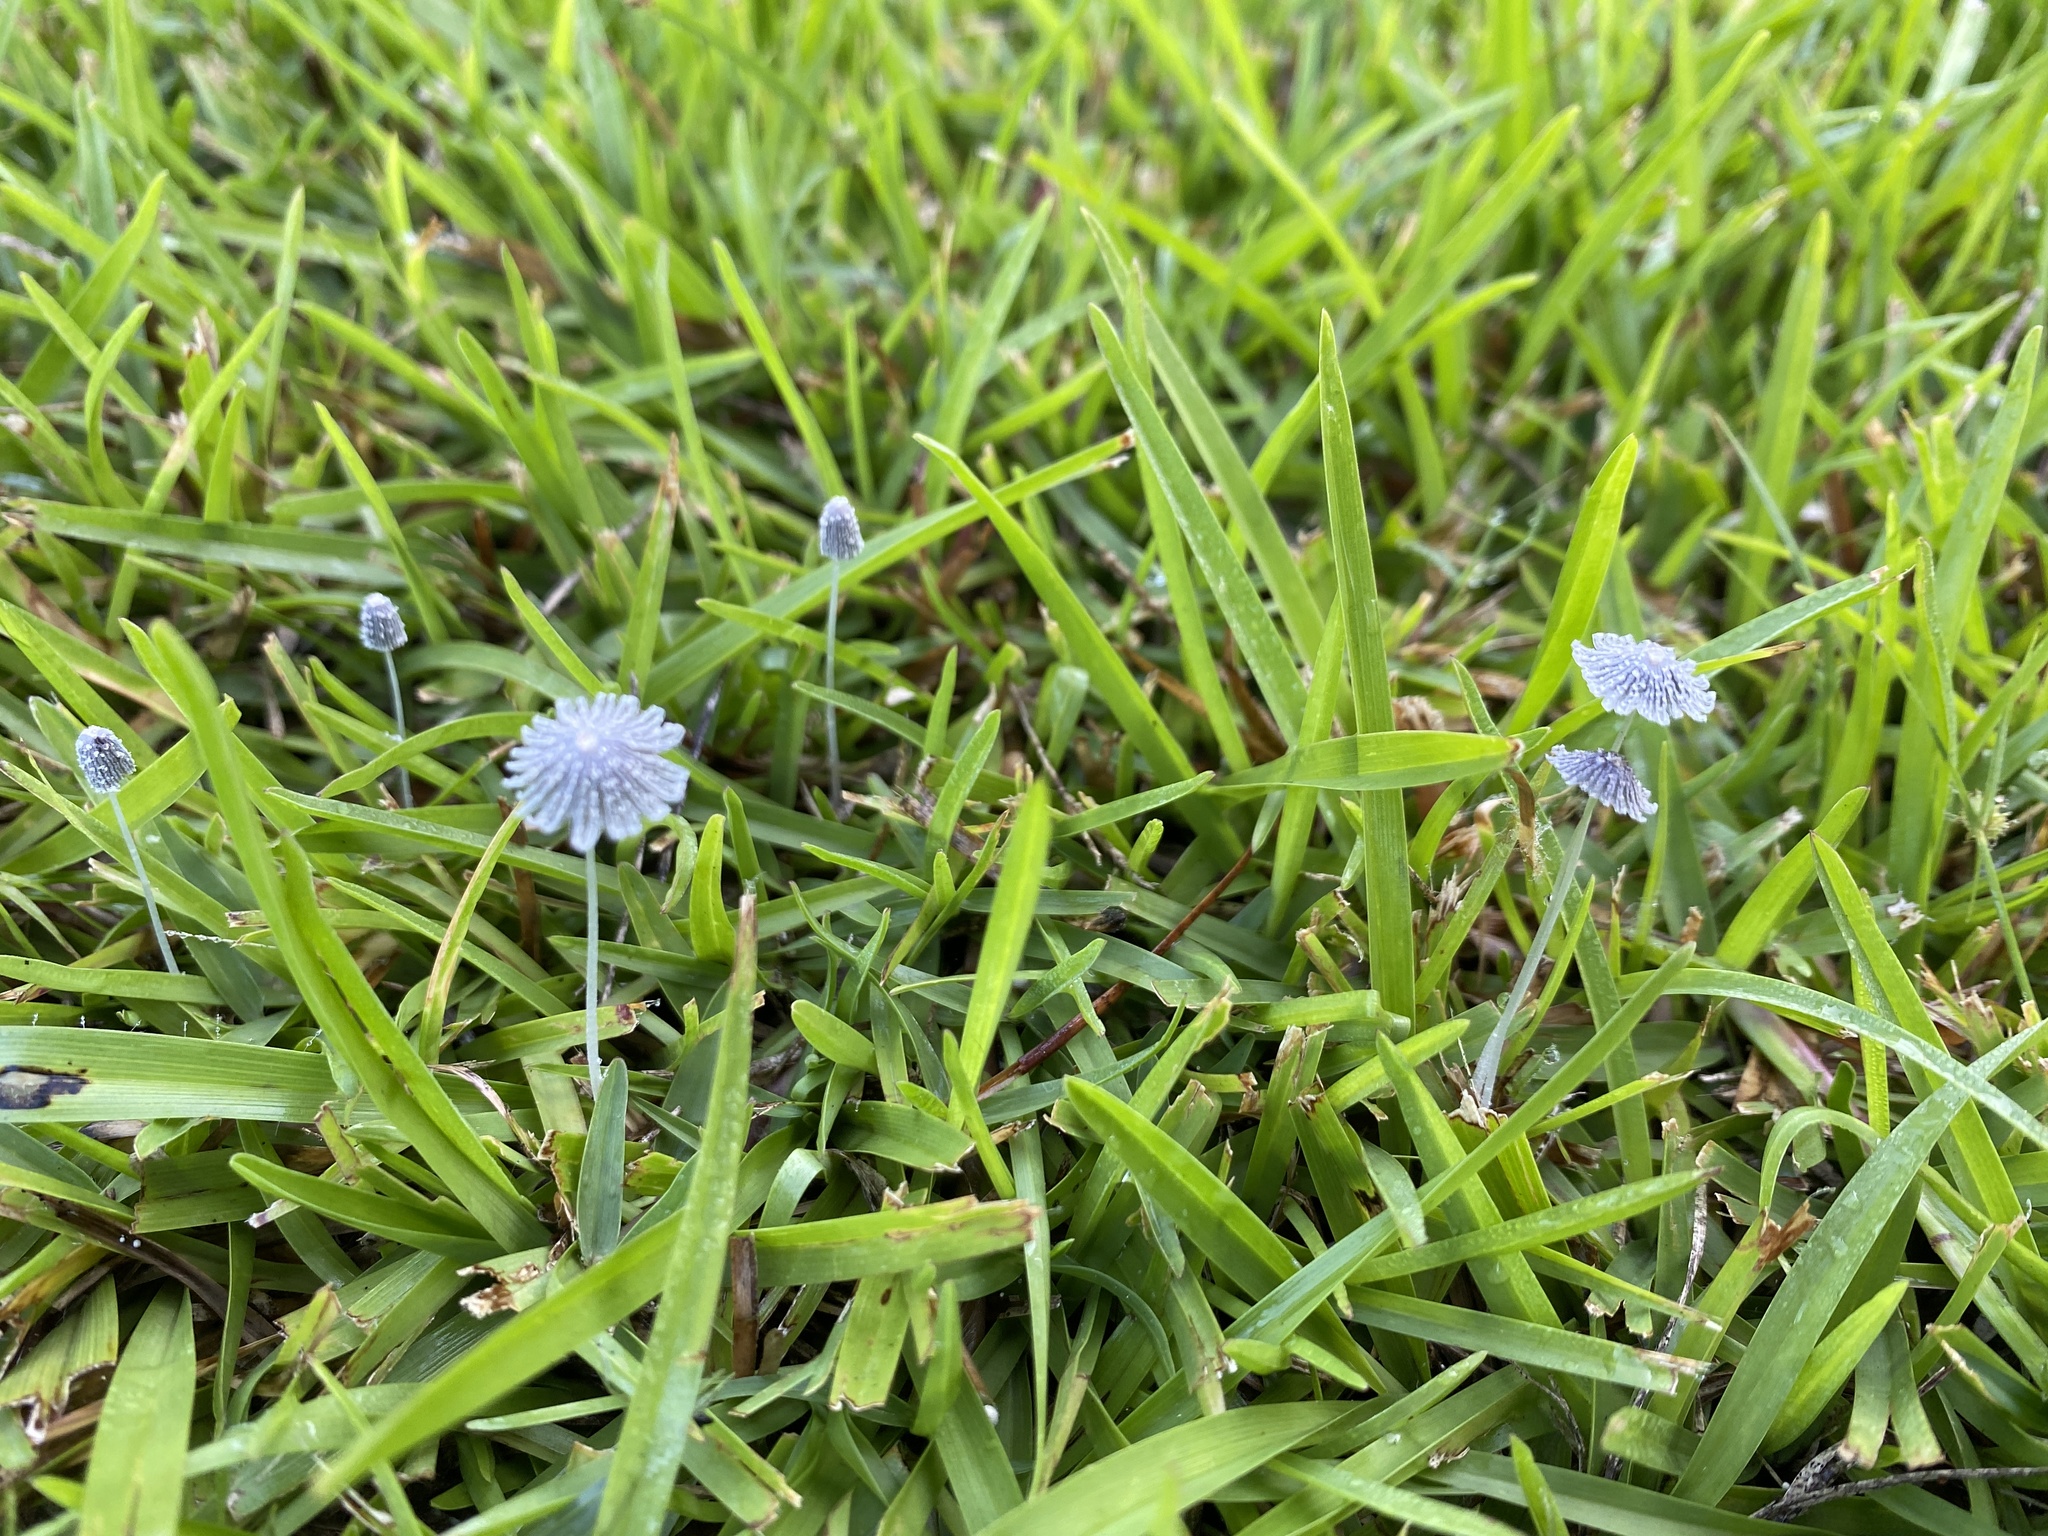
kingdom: Fungi
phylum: Basidiomycota
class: Agaricomycetes
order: Agaricales
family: Psathyrellaceae
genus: Coprinopsis
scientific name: Coprinopsis friesii
